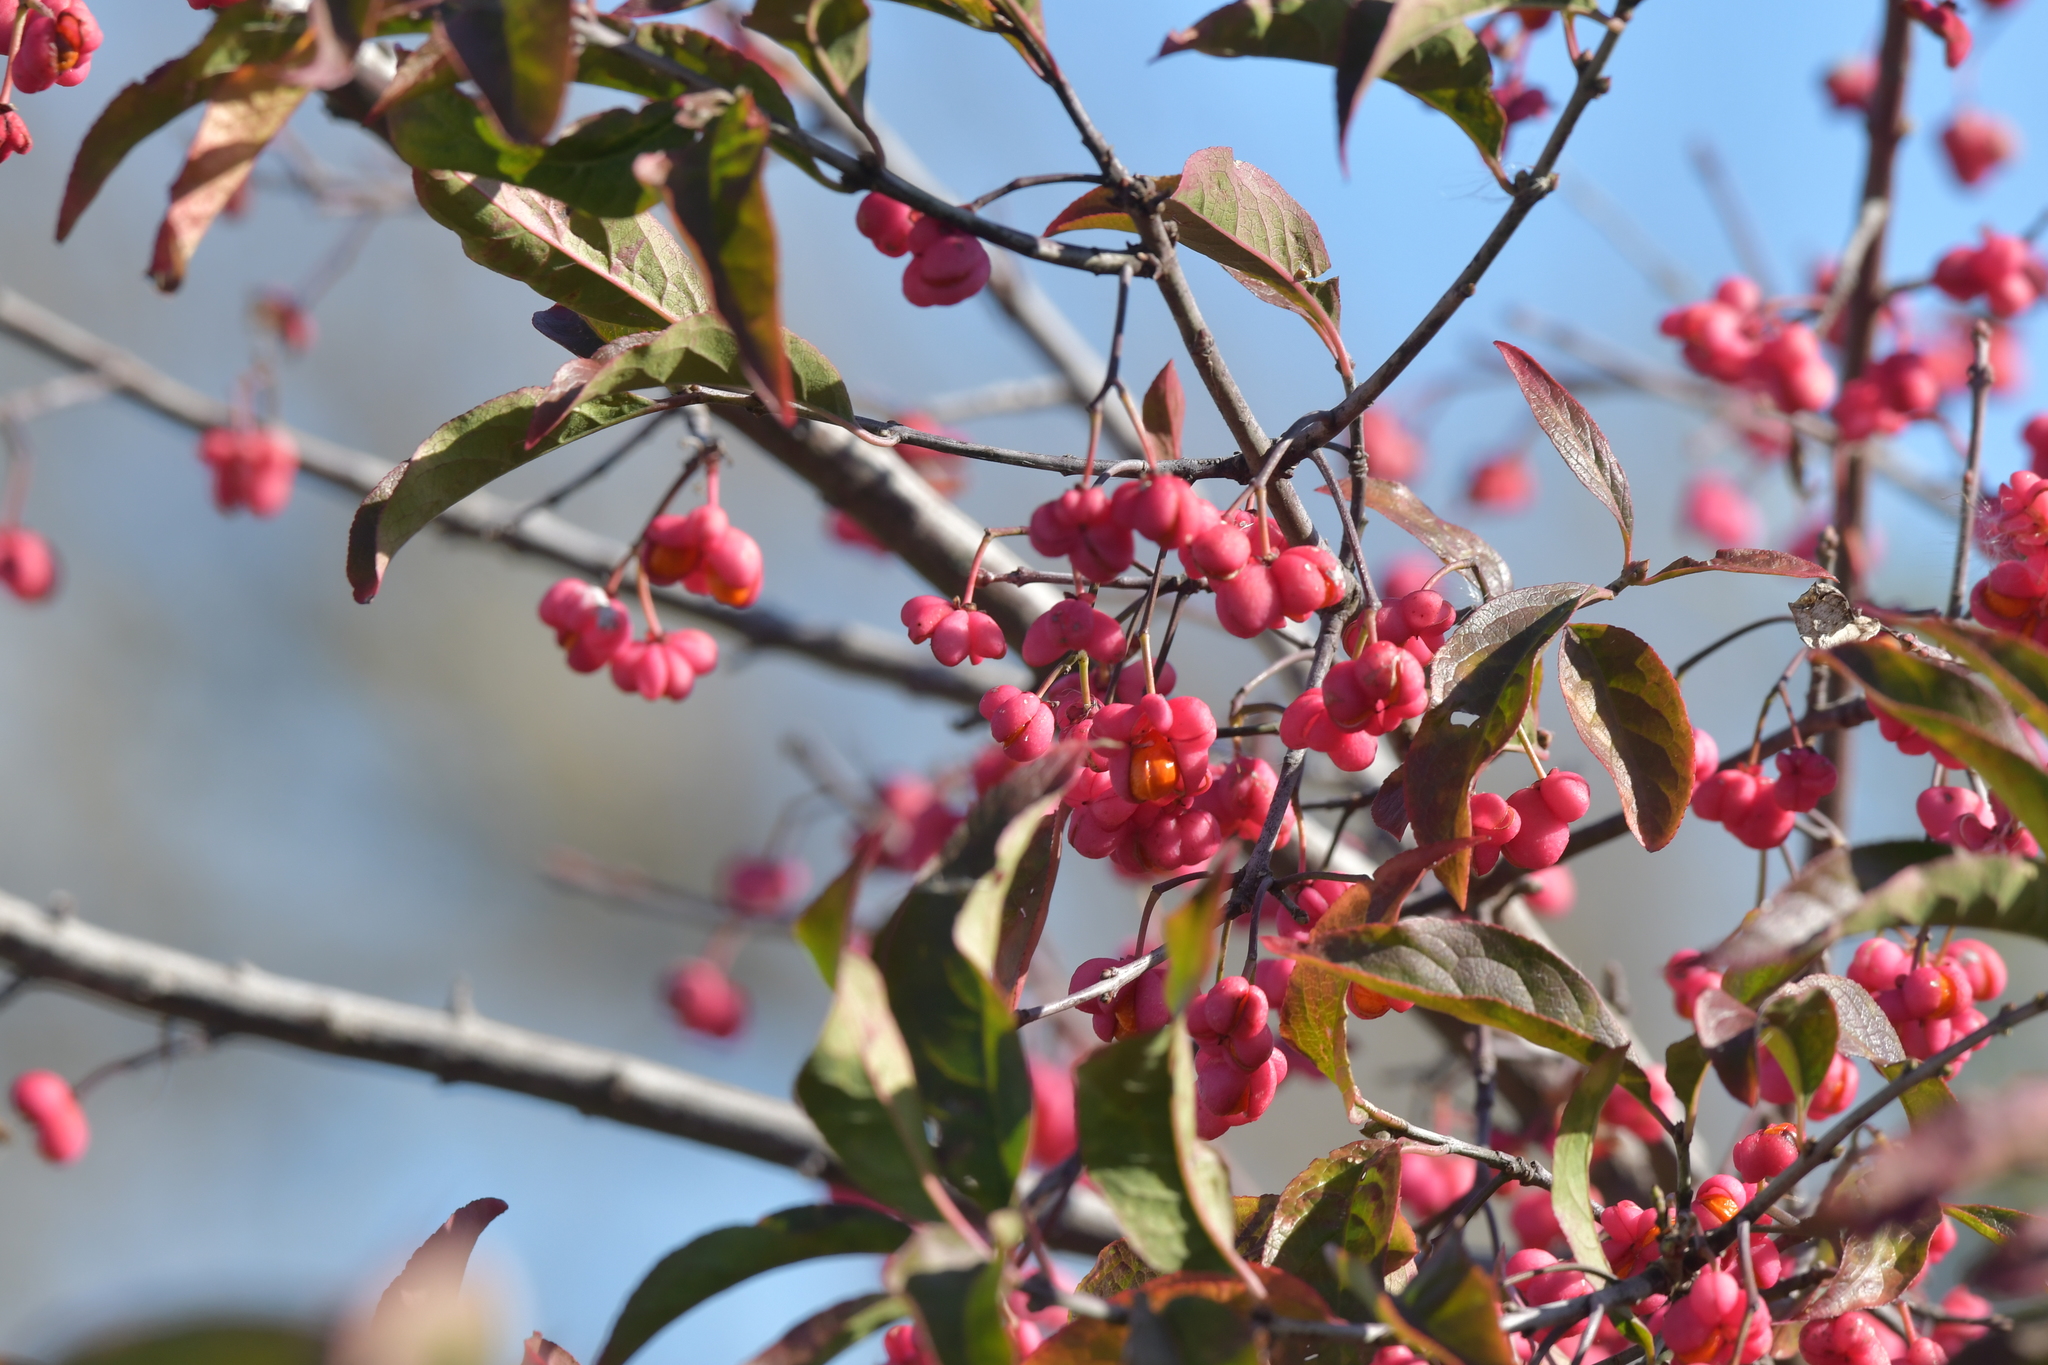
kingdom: Plantae
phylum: Tracheophyta
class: Magnoliopsida
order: Celastrales
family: Celastraceae
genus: Euonymus
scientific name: Euonymus europaeus
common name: Spindle
